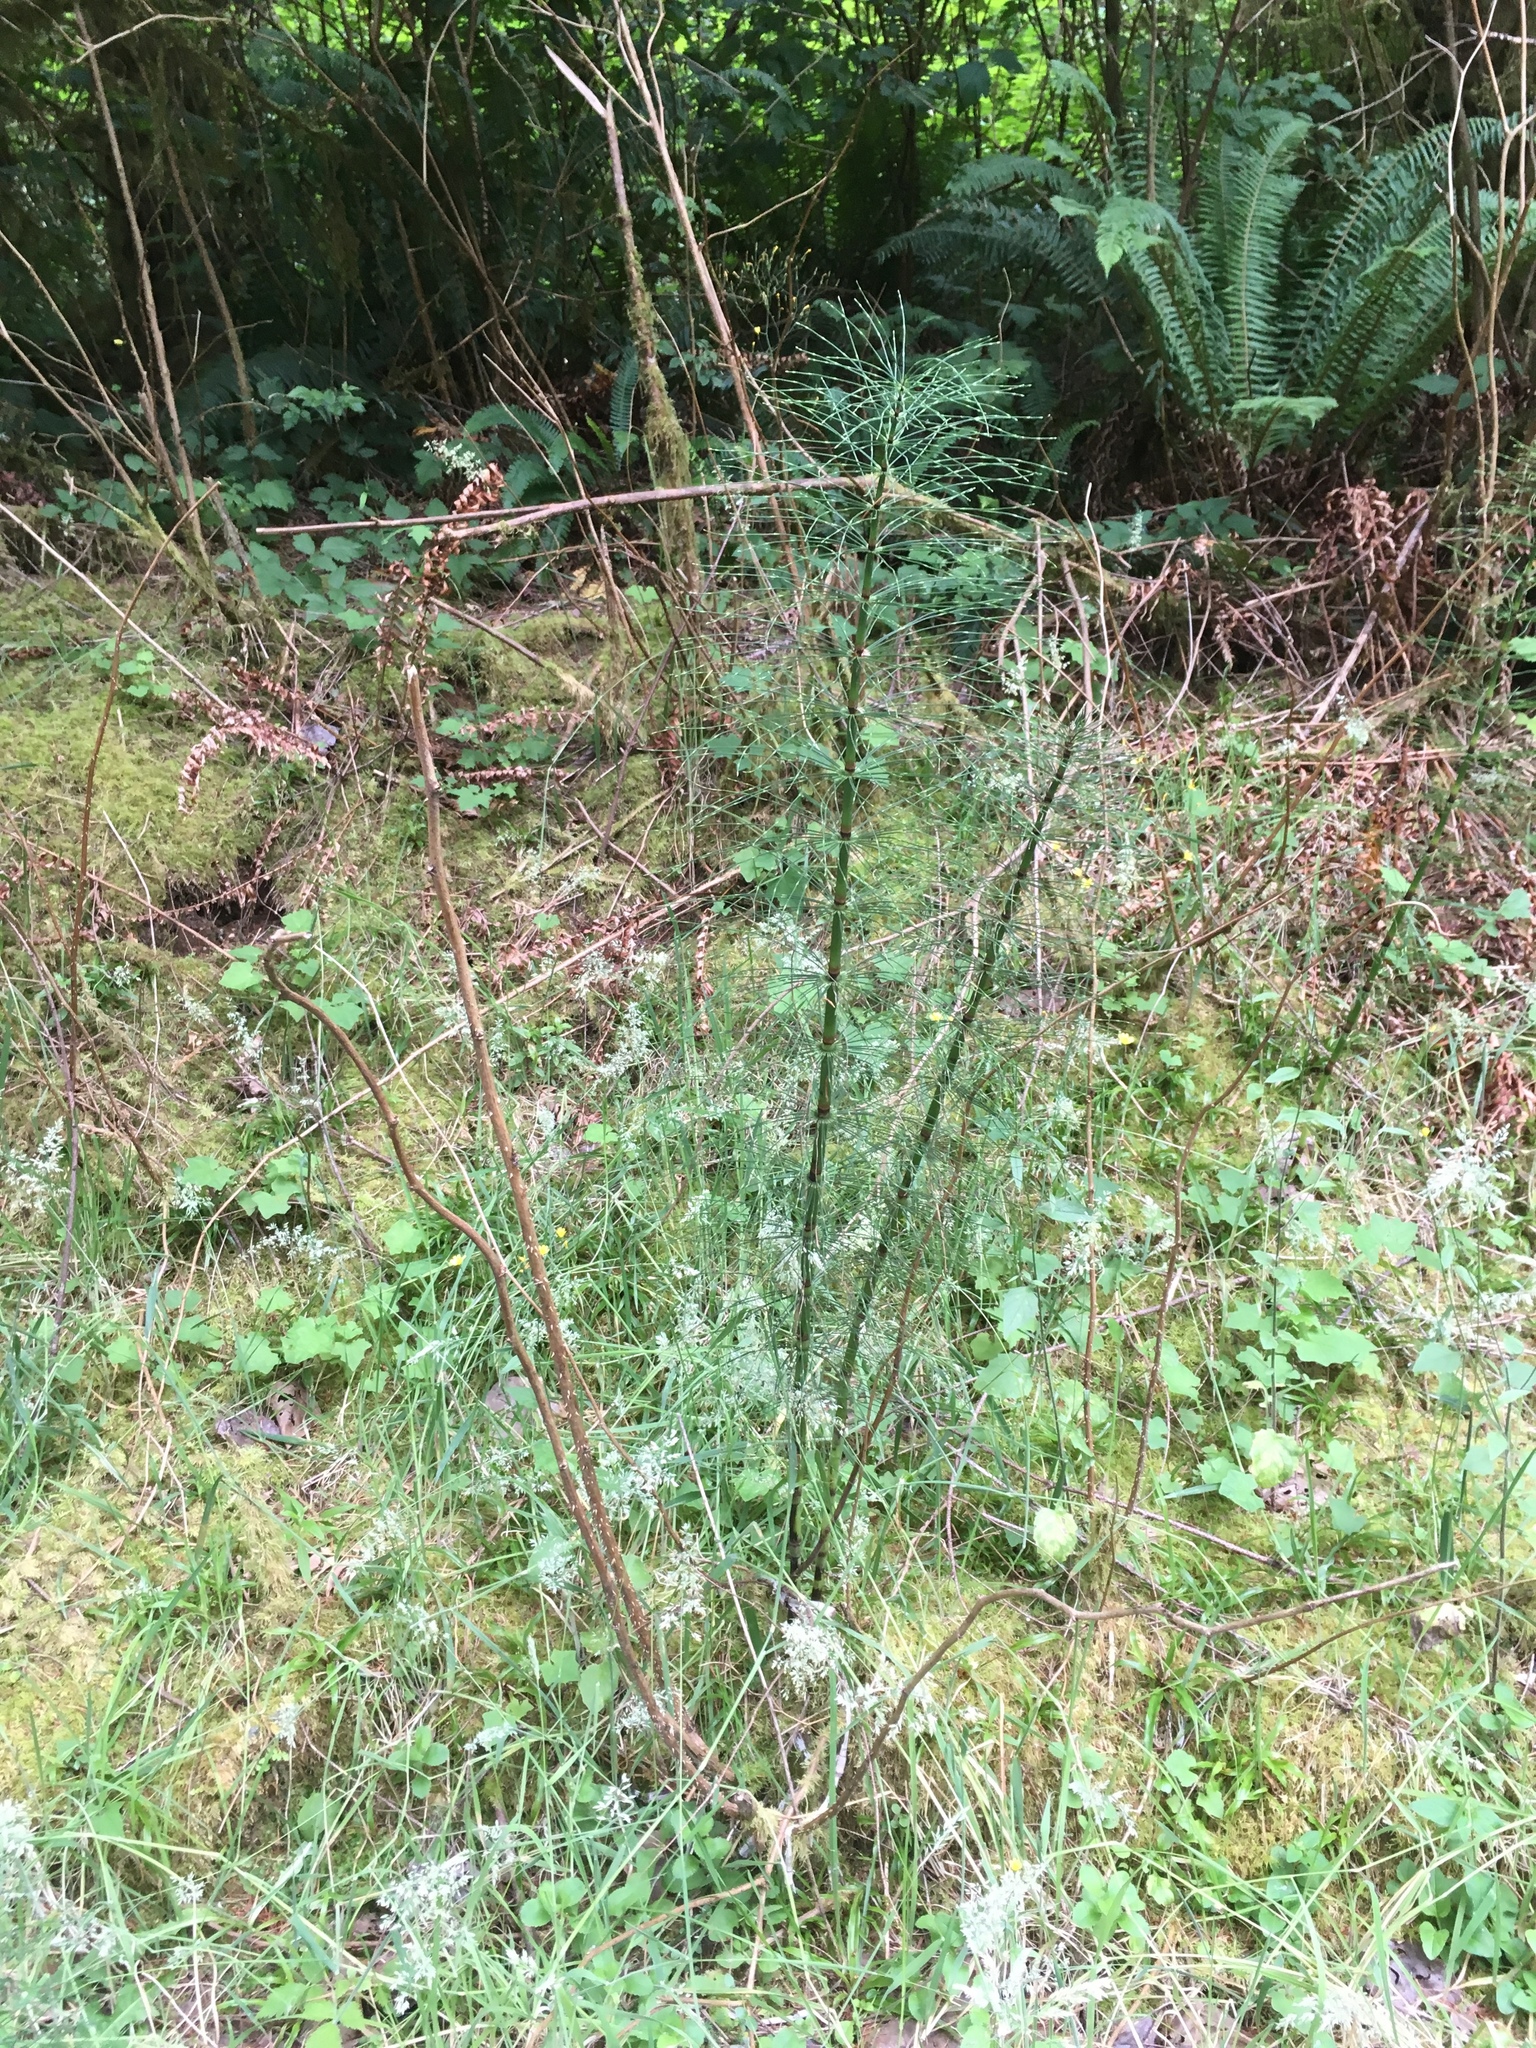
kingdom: Plantae
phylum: Tracheophyta
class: Polypodiopsida
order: Equisetales
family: Equisetaceae
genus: Equisetum
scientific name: Equisetum braunii
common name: Braun's horsetail
